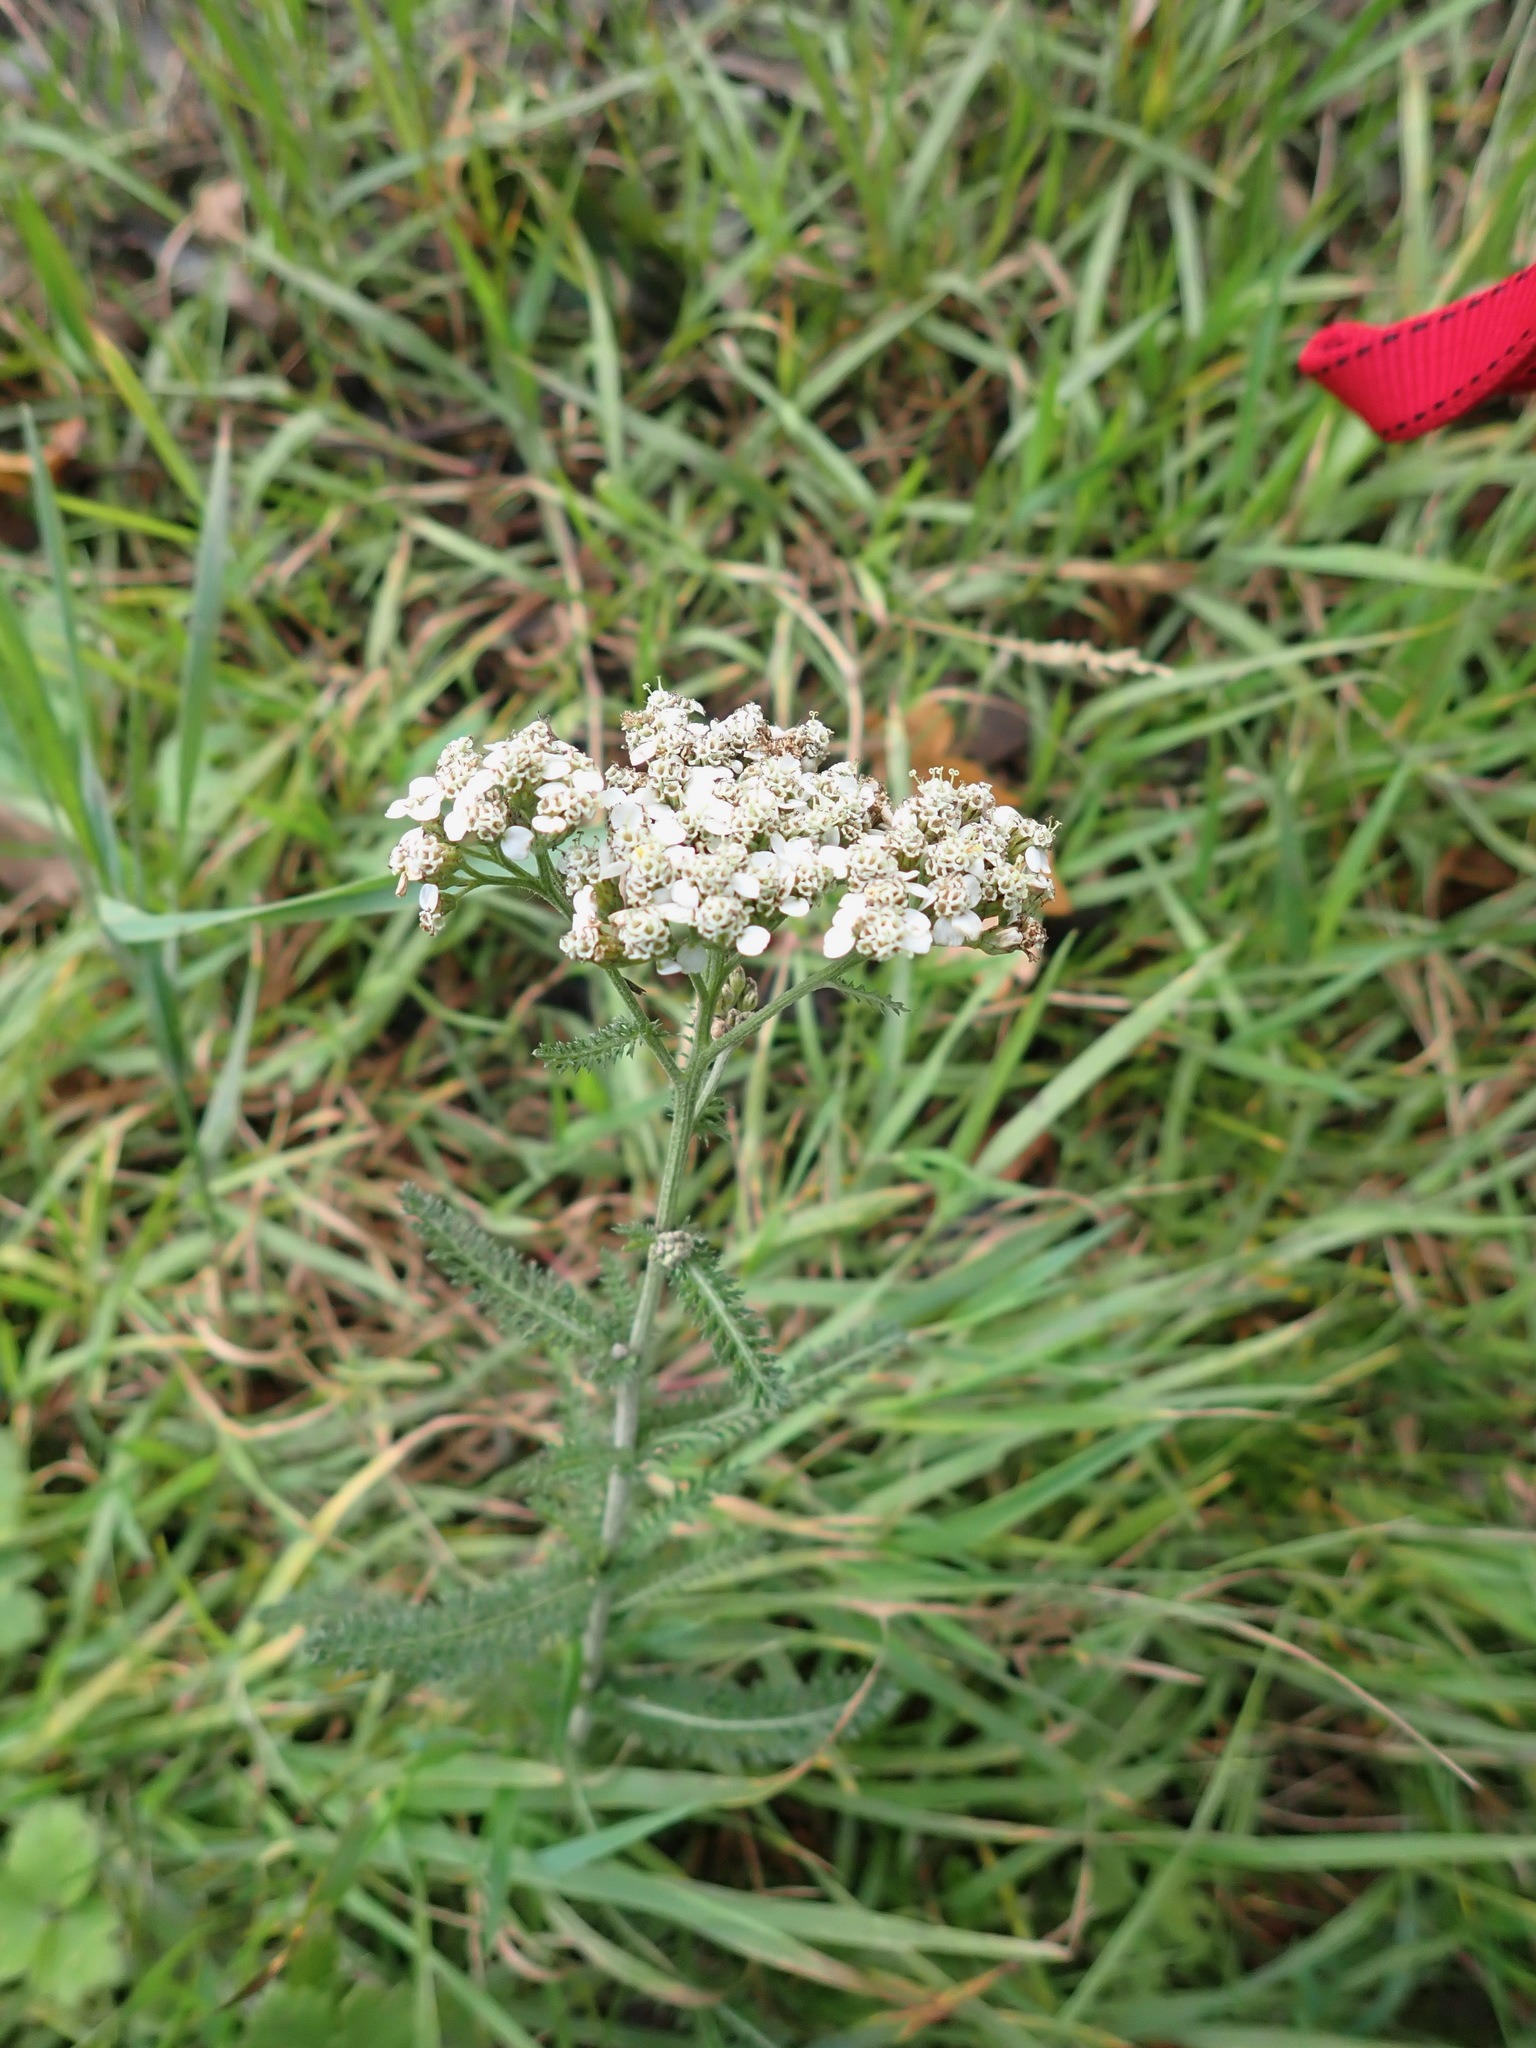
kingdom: Plantae
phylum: Tracheophyta
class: Magnoliopsida
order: Asterales
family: Asteraceae
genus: Achillea
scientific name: Achillea millefolium
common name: Yarrow
